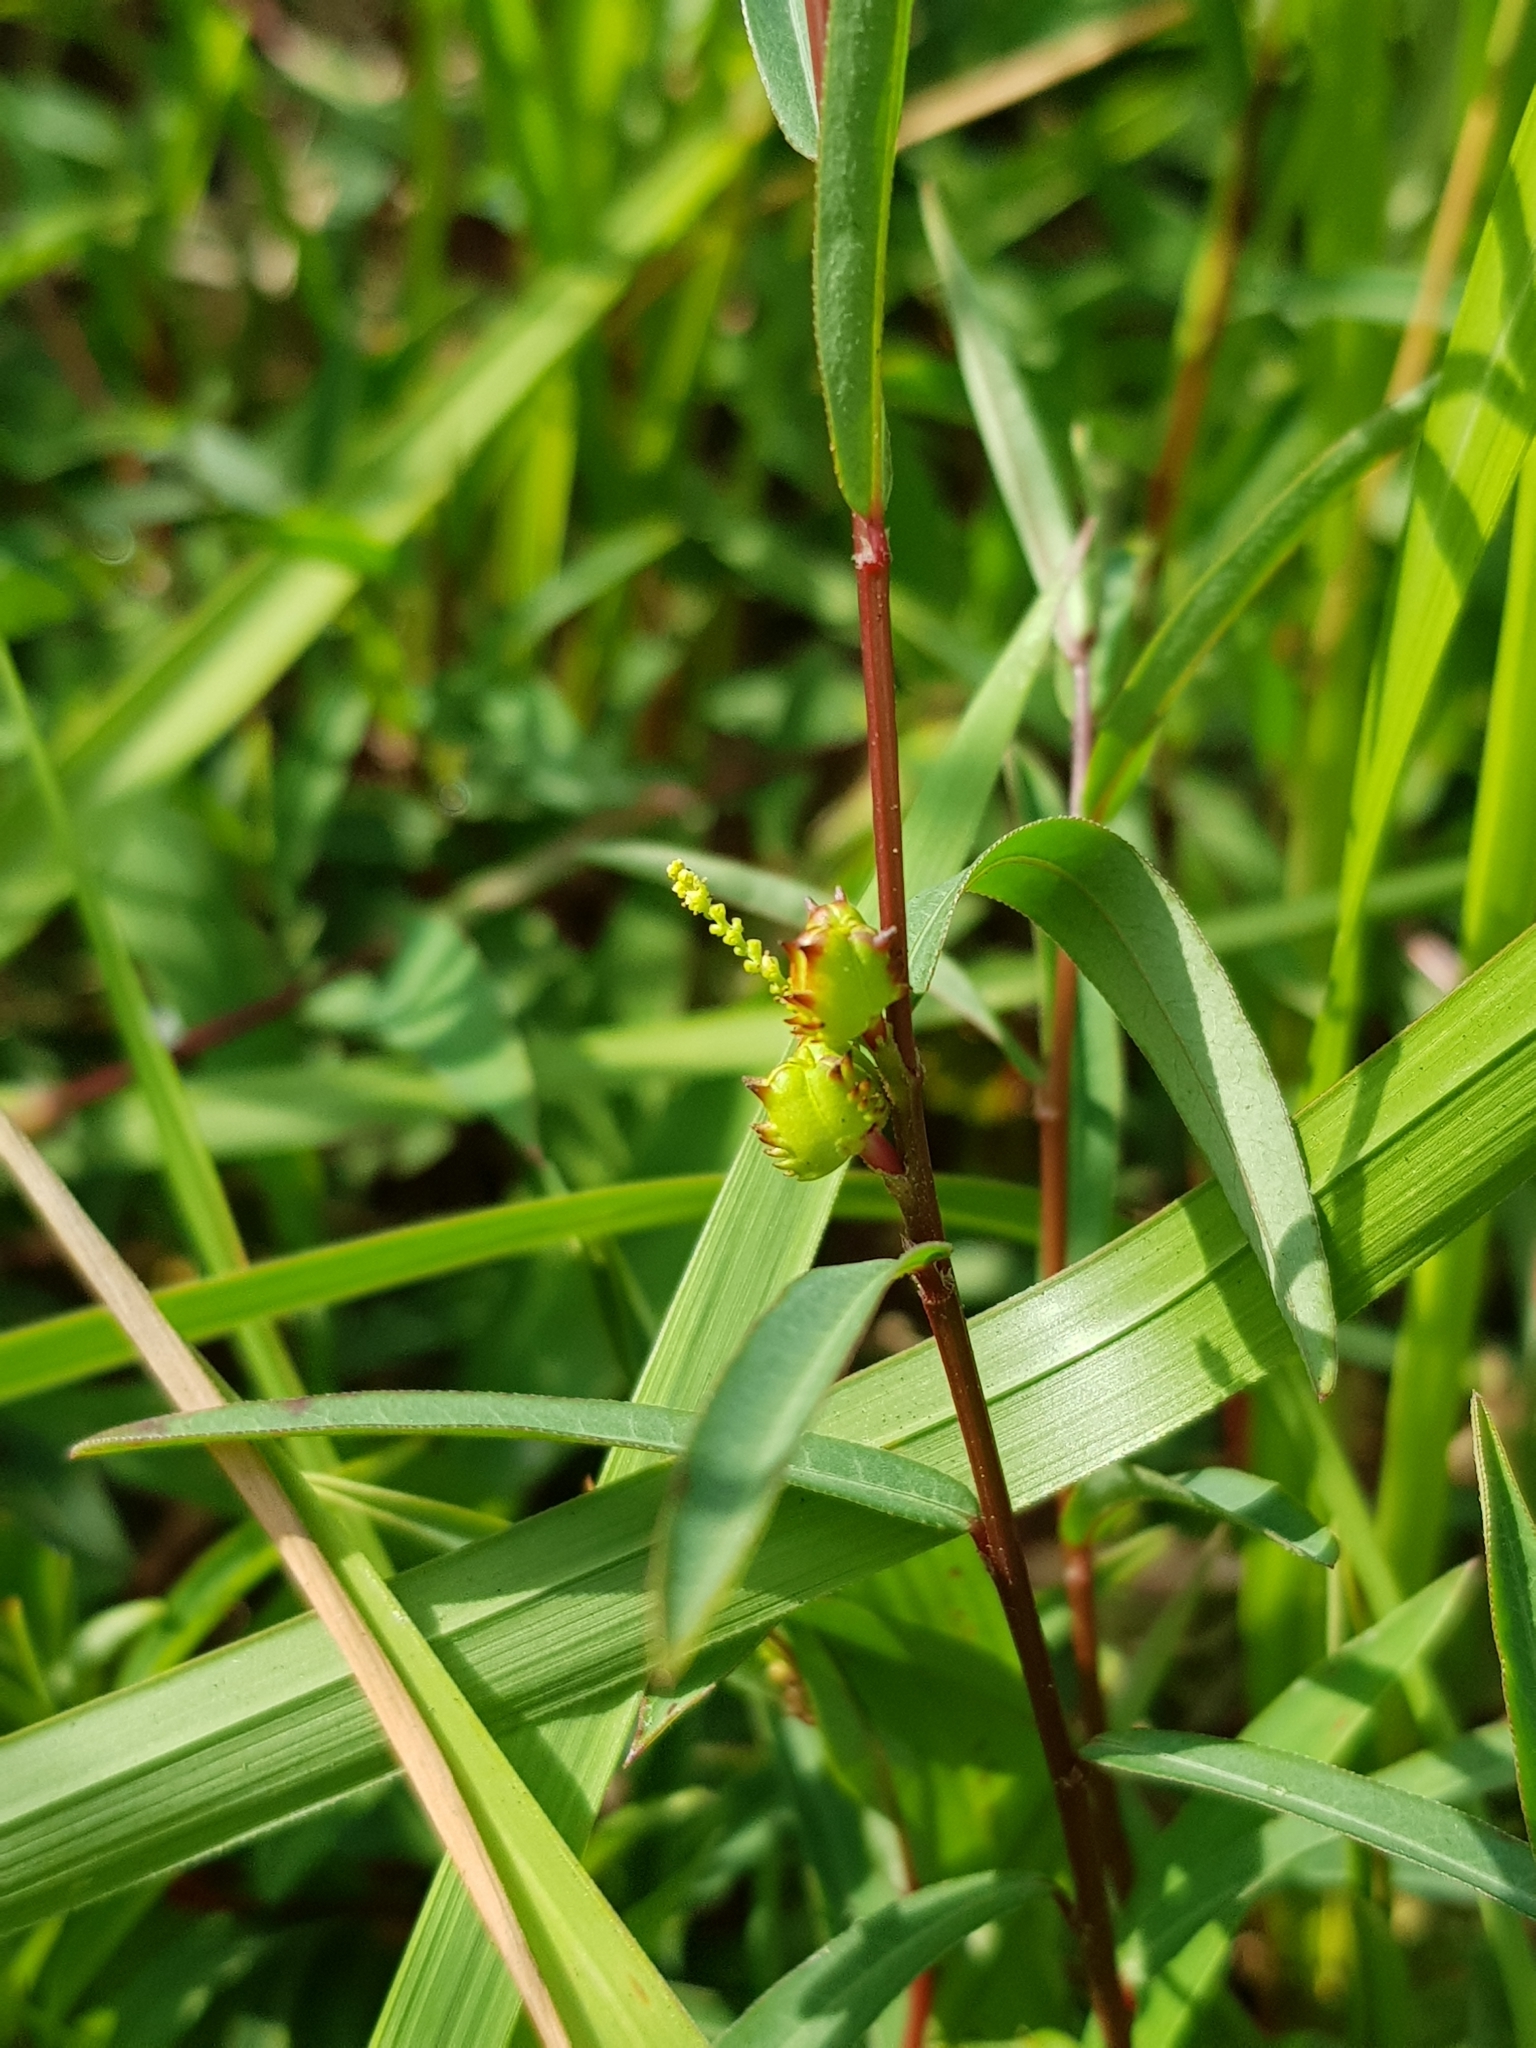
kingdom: Plantae
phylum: Tracheophyta
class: Magnoliopsida
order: Malpighiales
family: Euphorbiaceae
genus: Microstachys
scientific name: Microstachys chamaelea
